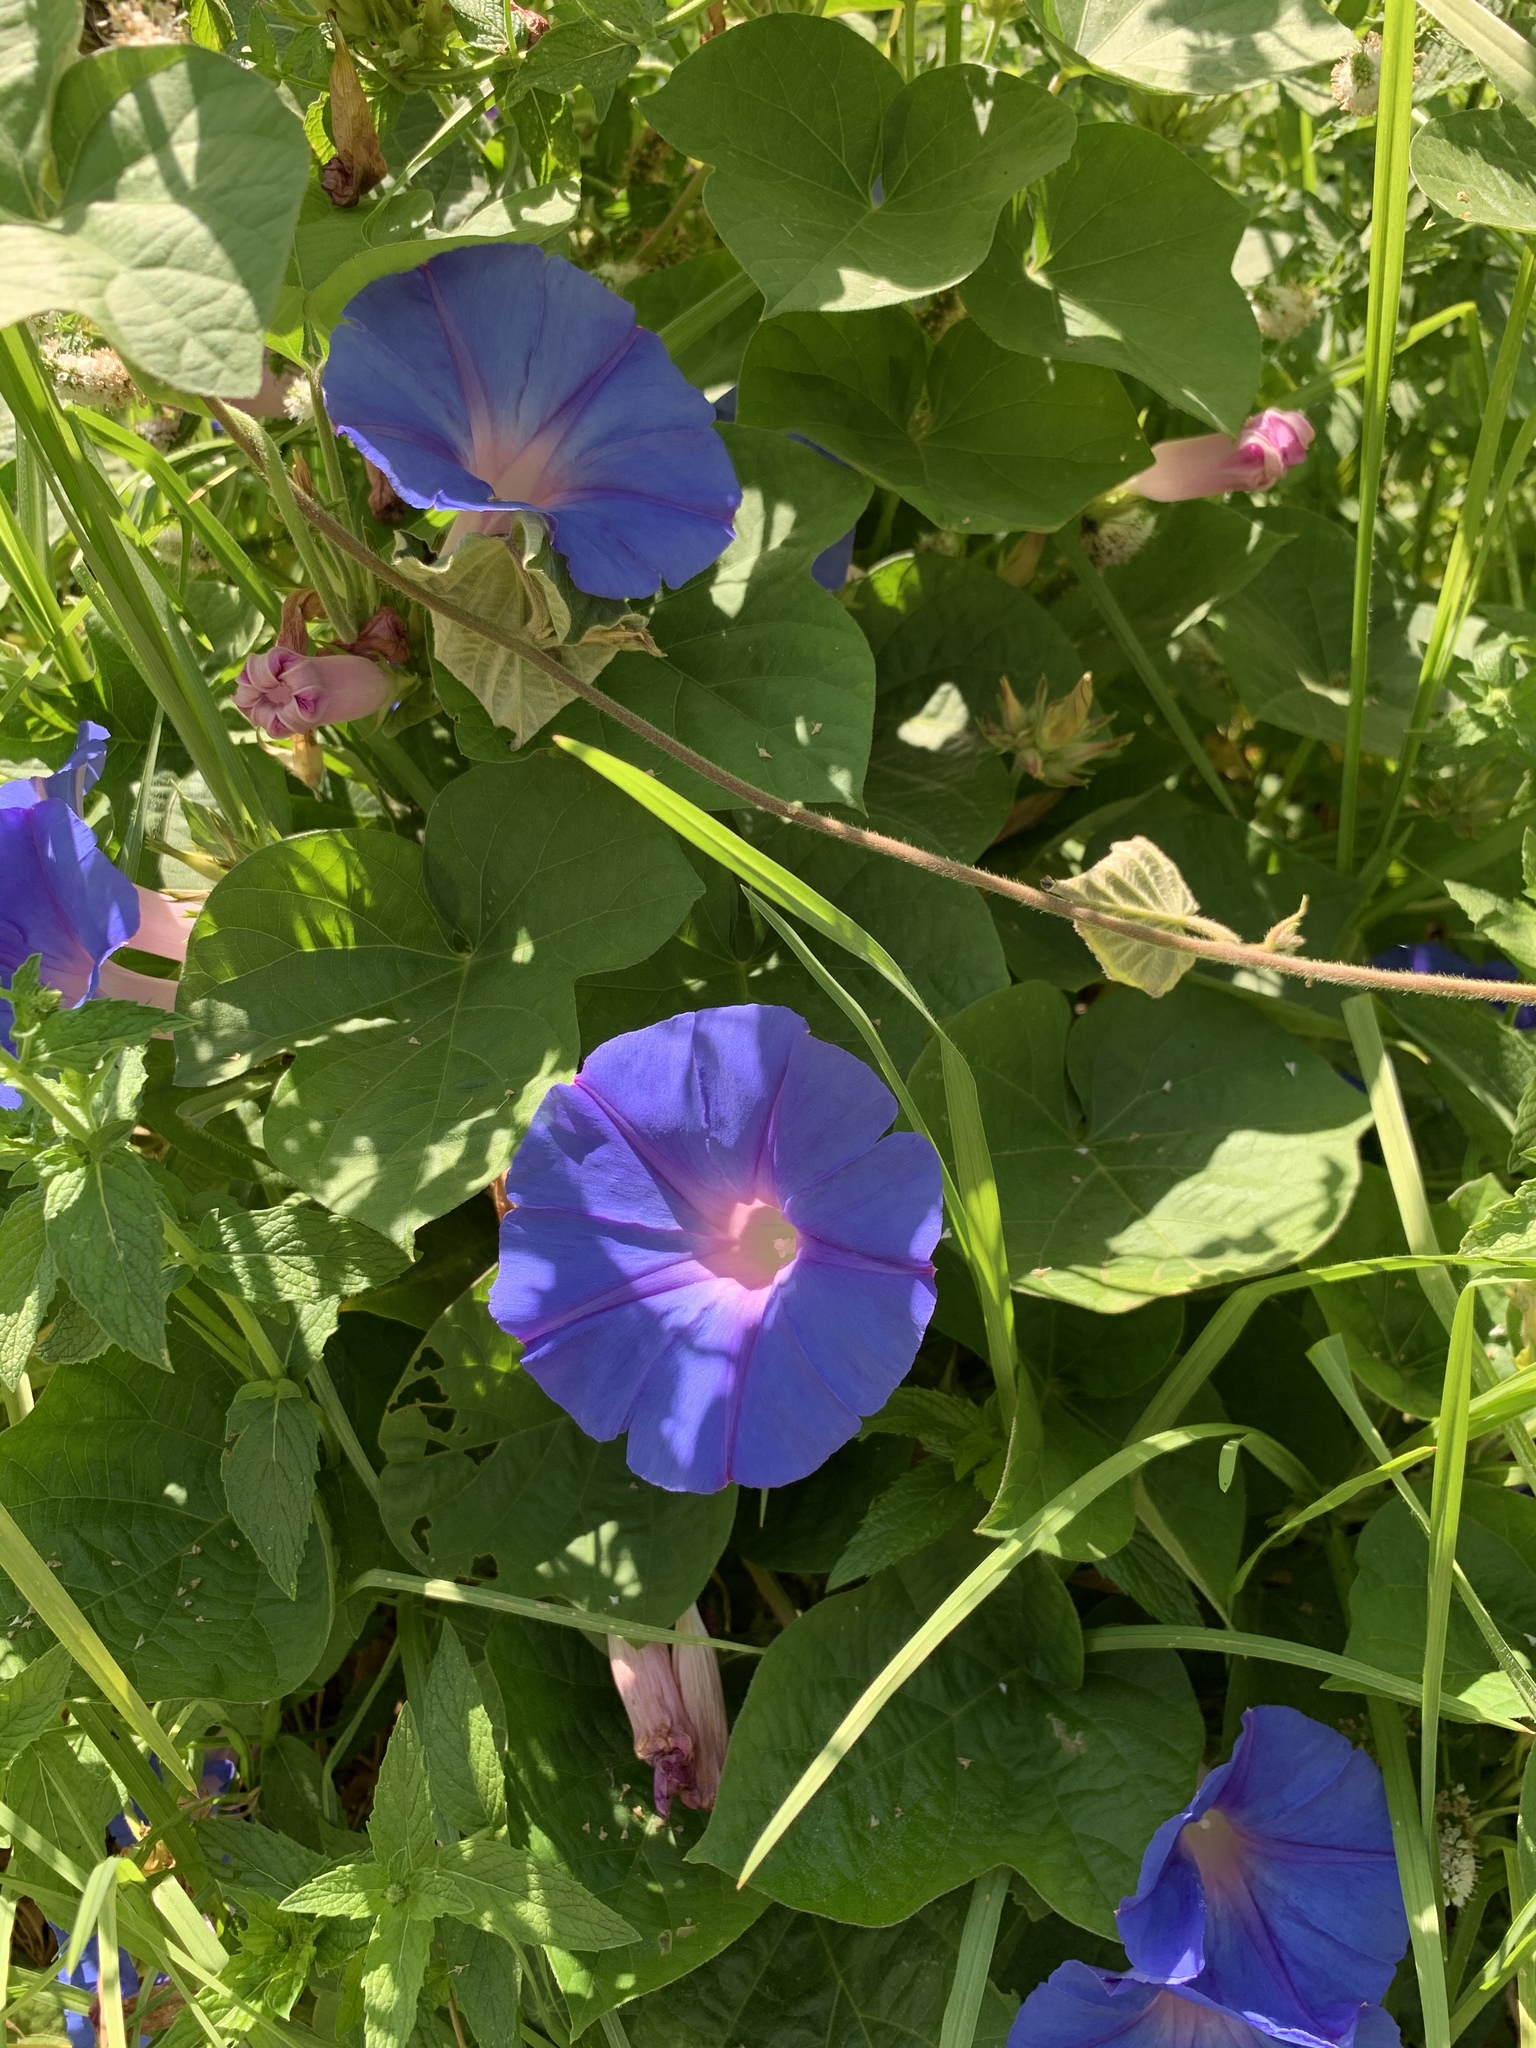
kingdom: Plantae
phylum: Tracheophyta
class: Magnoliopsida
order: Solanales
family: Convolvulaceae
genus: Ipomoea
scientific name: Ipomoea indica
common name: Blue dawnflower
